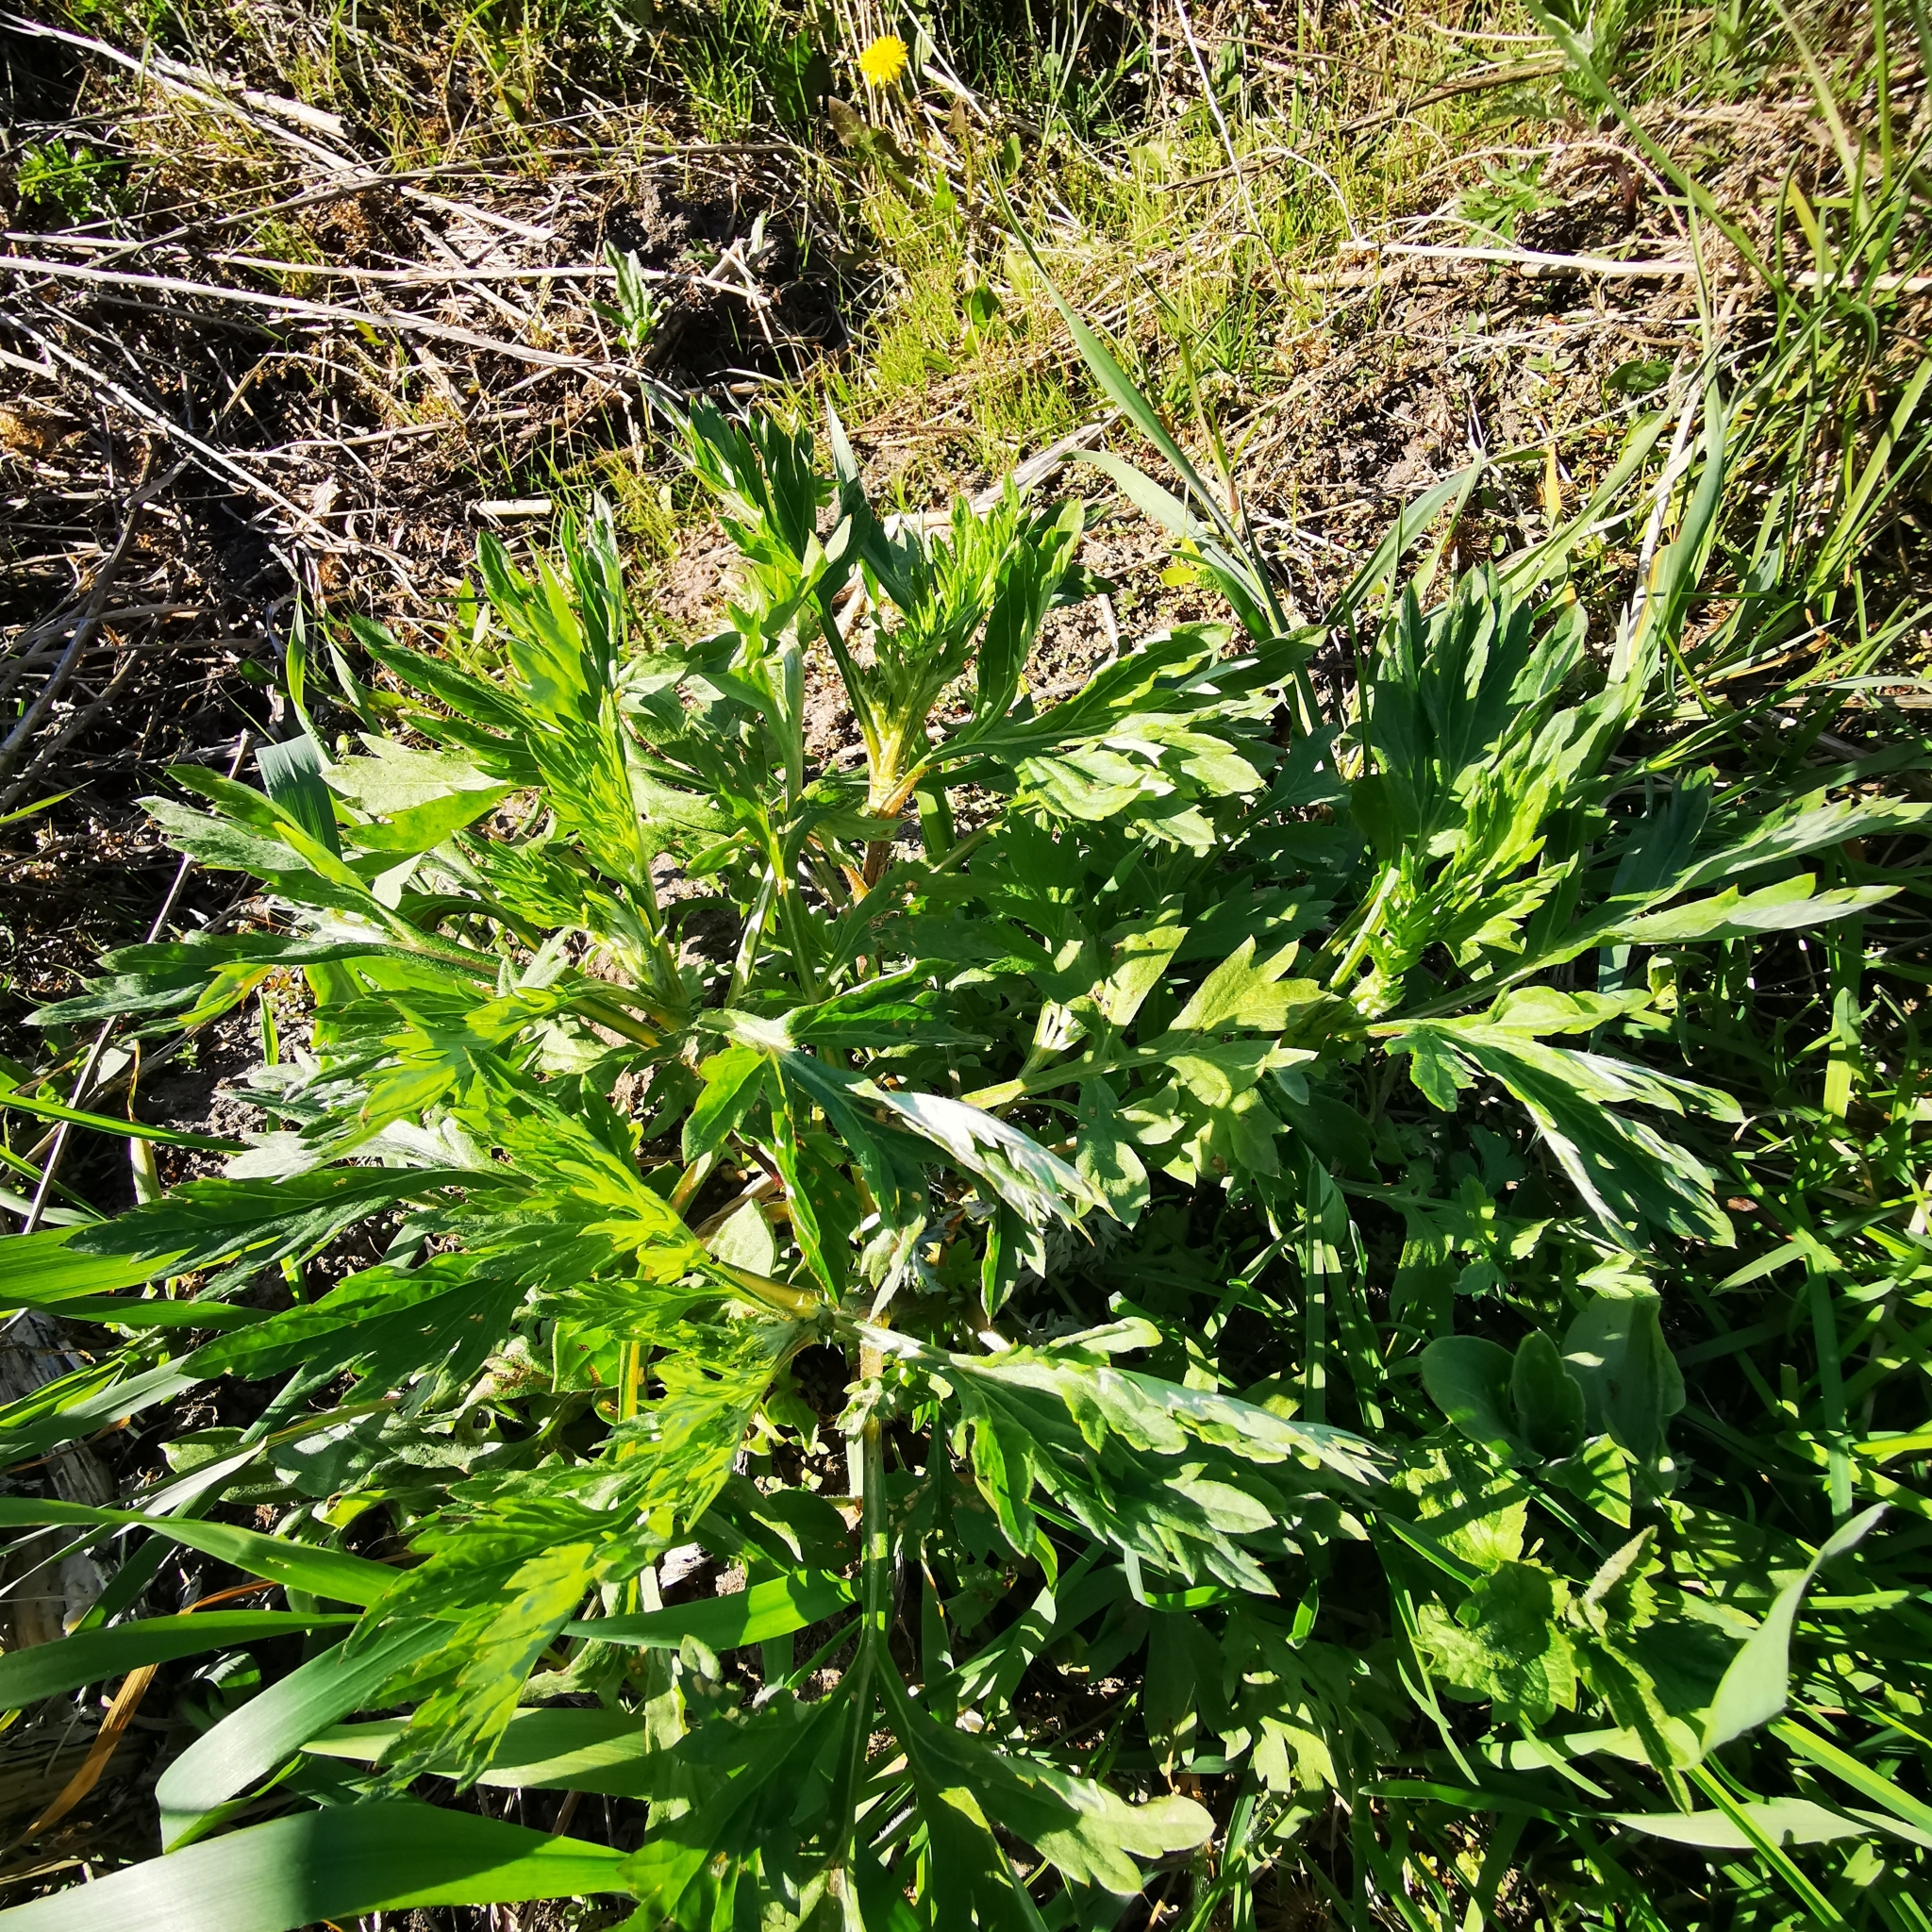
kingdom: Plantae
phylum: Tracheophyta
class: Magnoliopsida
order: Asterales
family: Asteraceae
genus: Artemisia
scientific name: Artemisia vulgaris
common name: Mugwort
